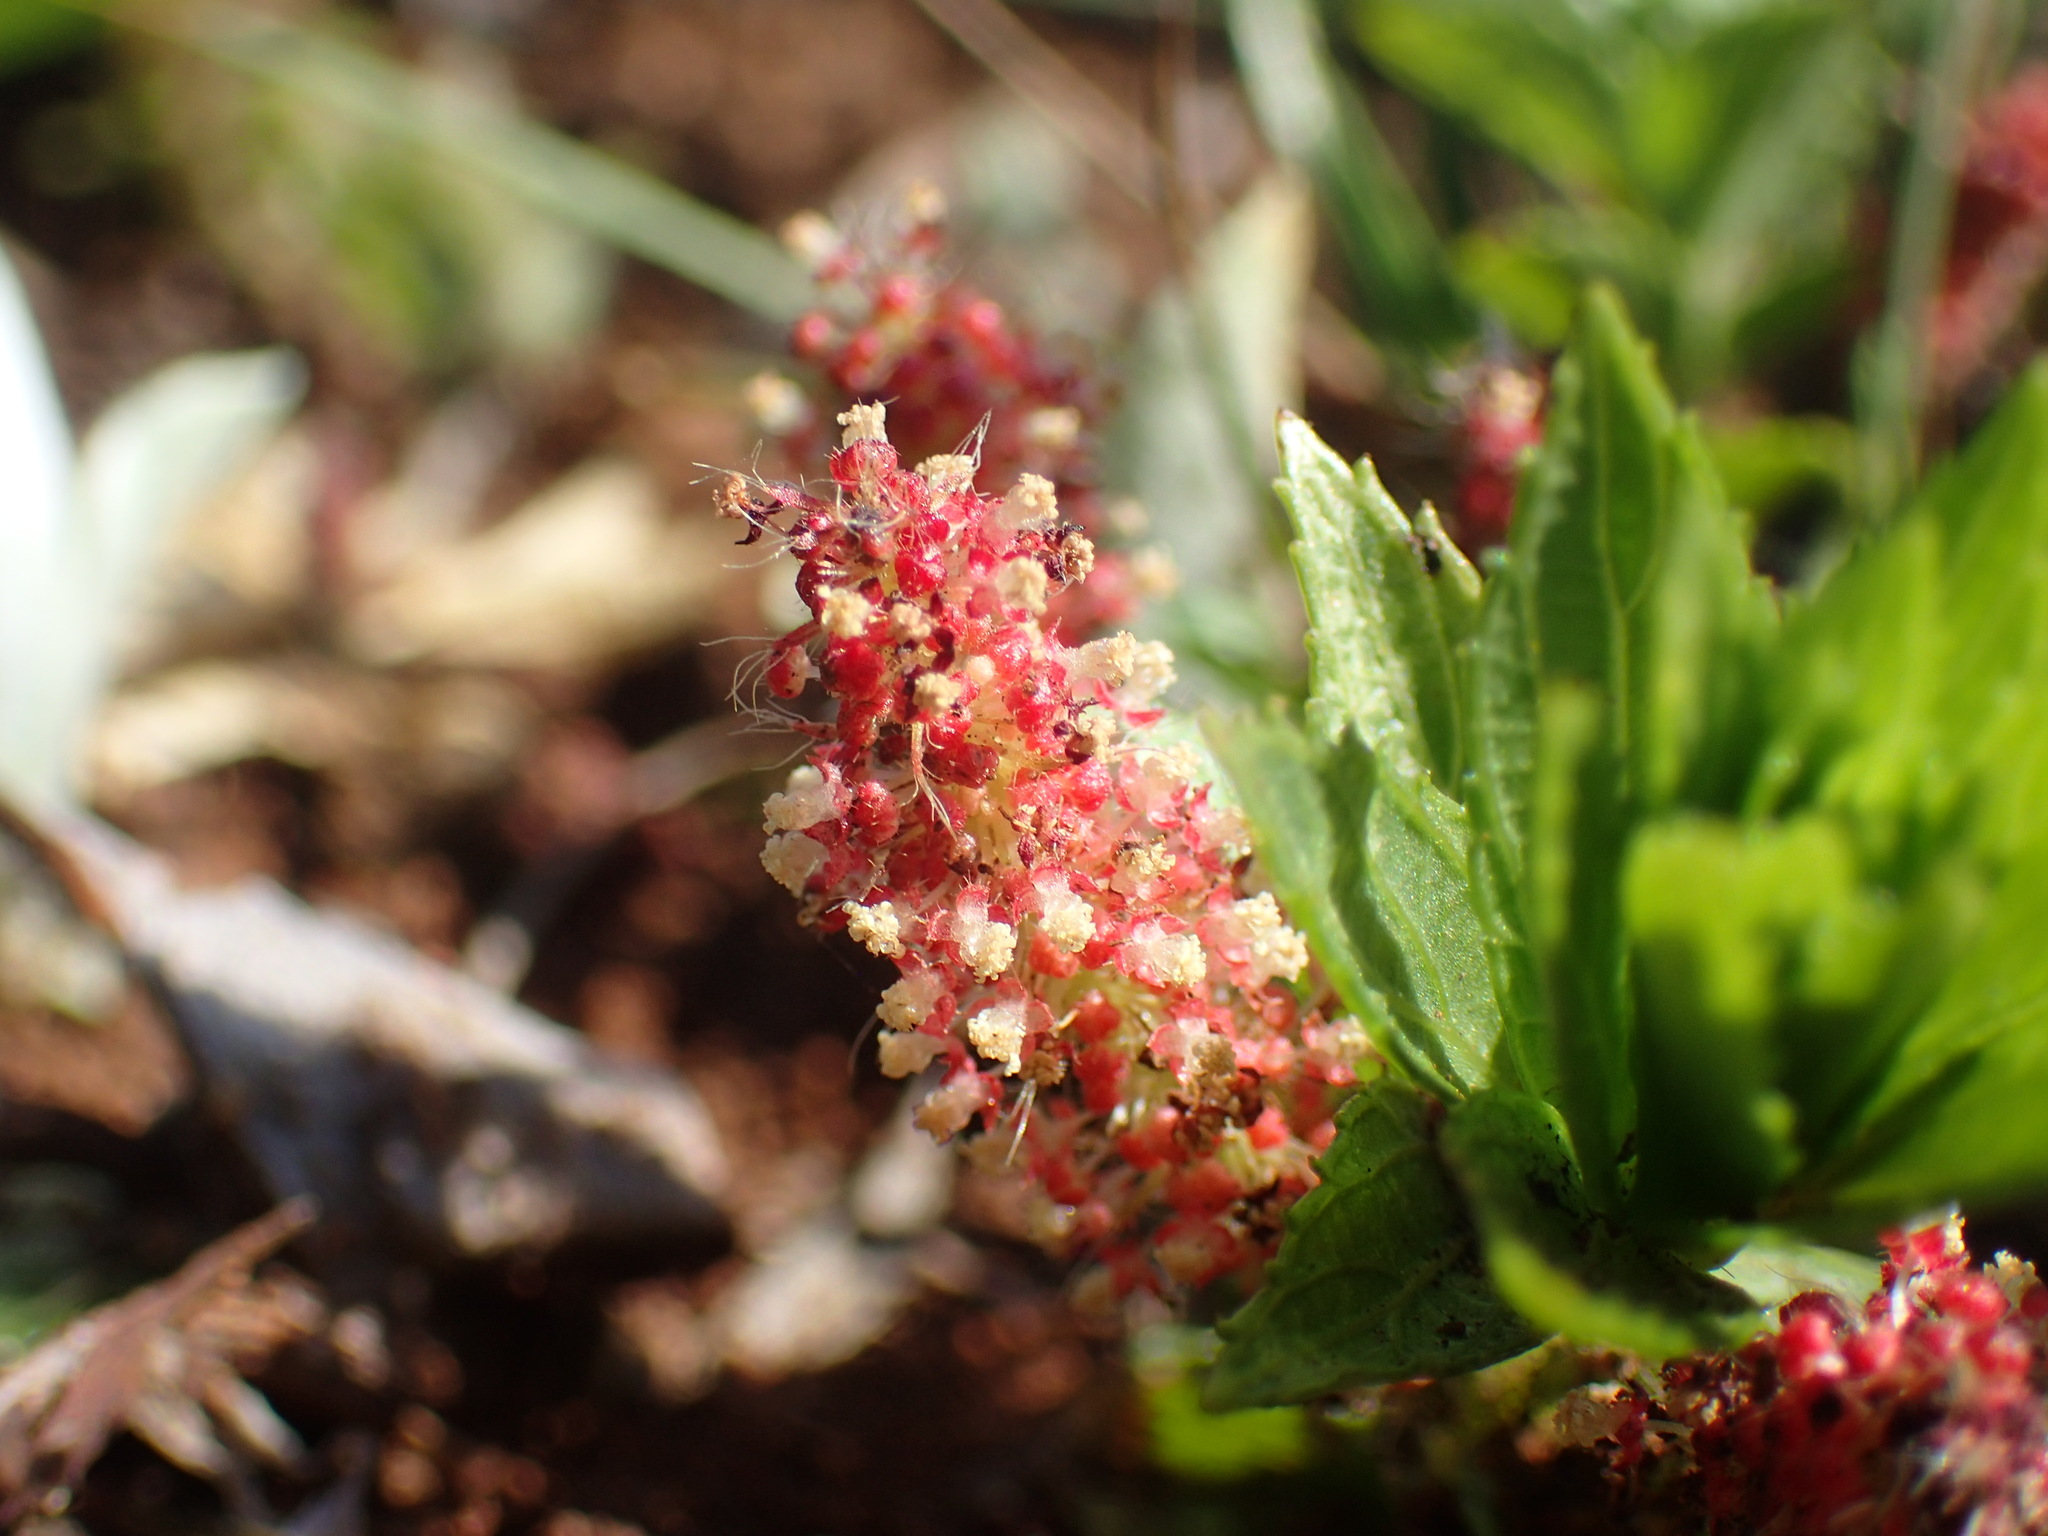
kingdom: Plantae
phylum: Tracheophyta
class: Magnoliopsida
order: Malpighiales
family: Euphorbiaceae
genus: Acalypha
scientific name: Acalypha punctata
